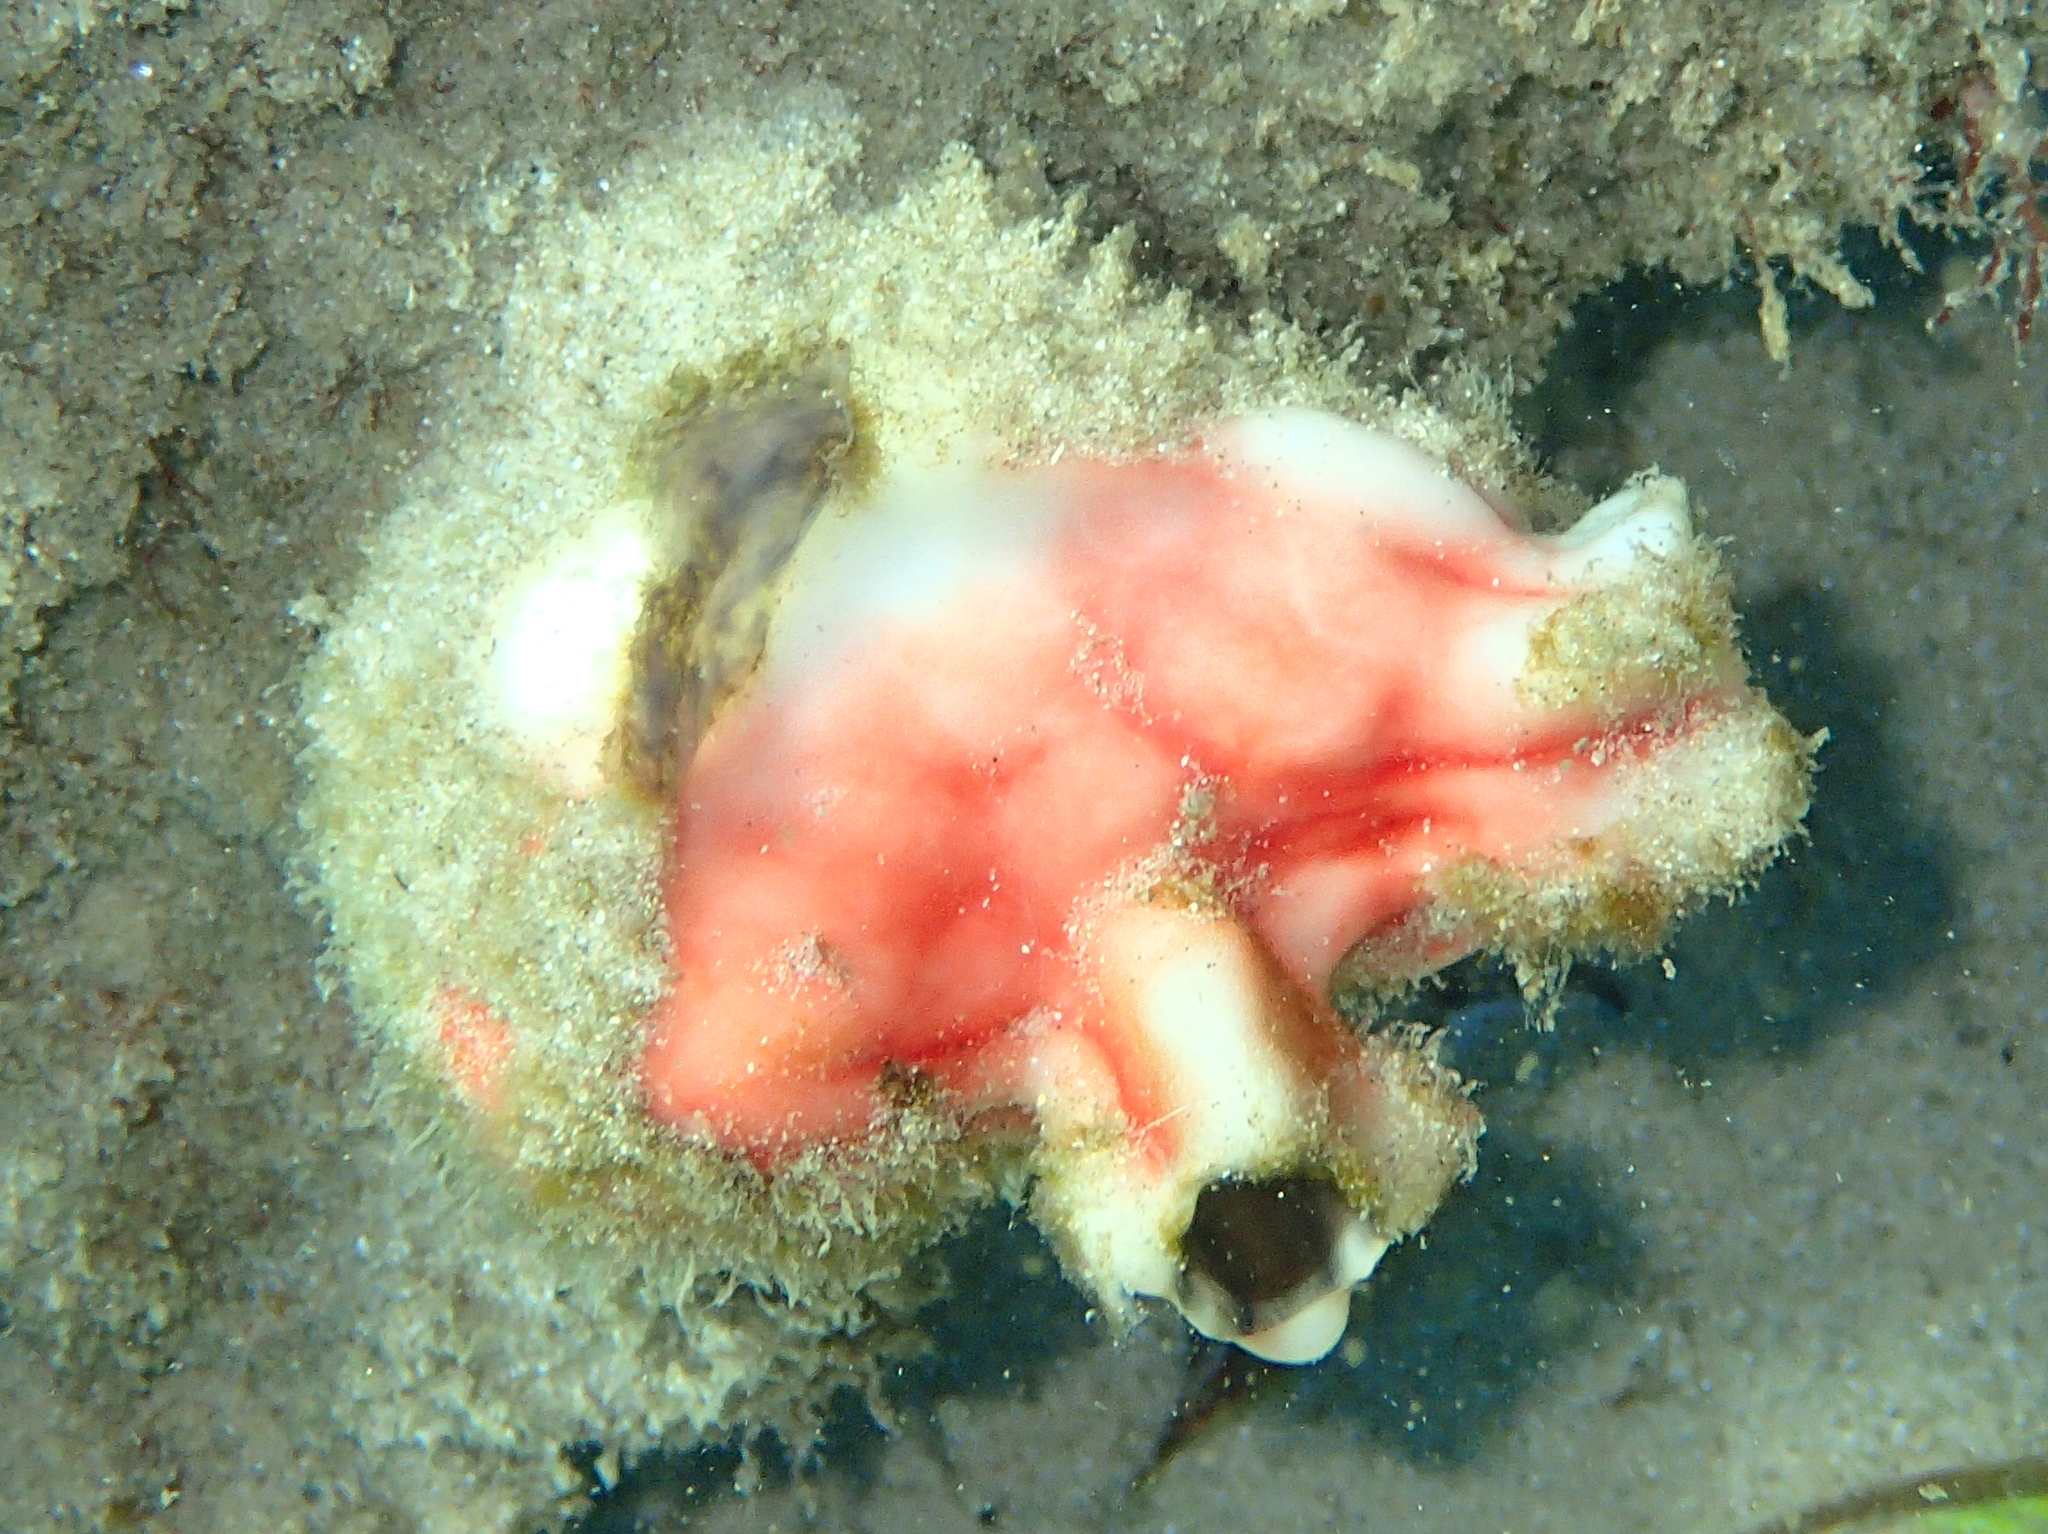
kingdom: Animalia
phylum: Chordata
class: Ascidiacea
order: Stolidobranchia
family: Styelidae
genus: Cnemidocarpa
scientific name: Cnemidocarpa stolonifera
